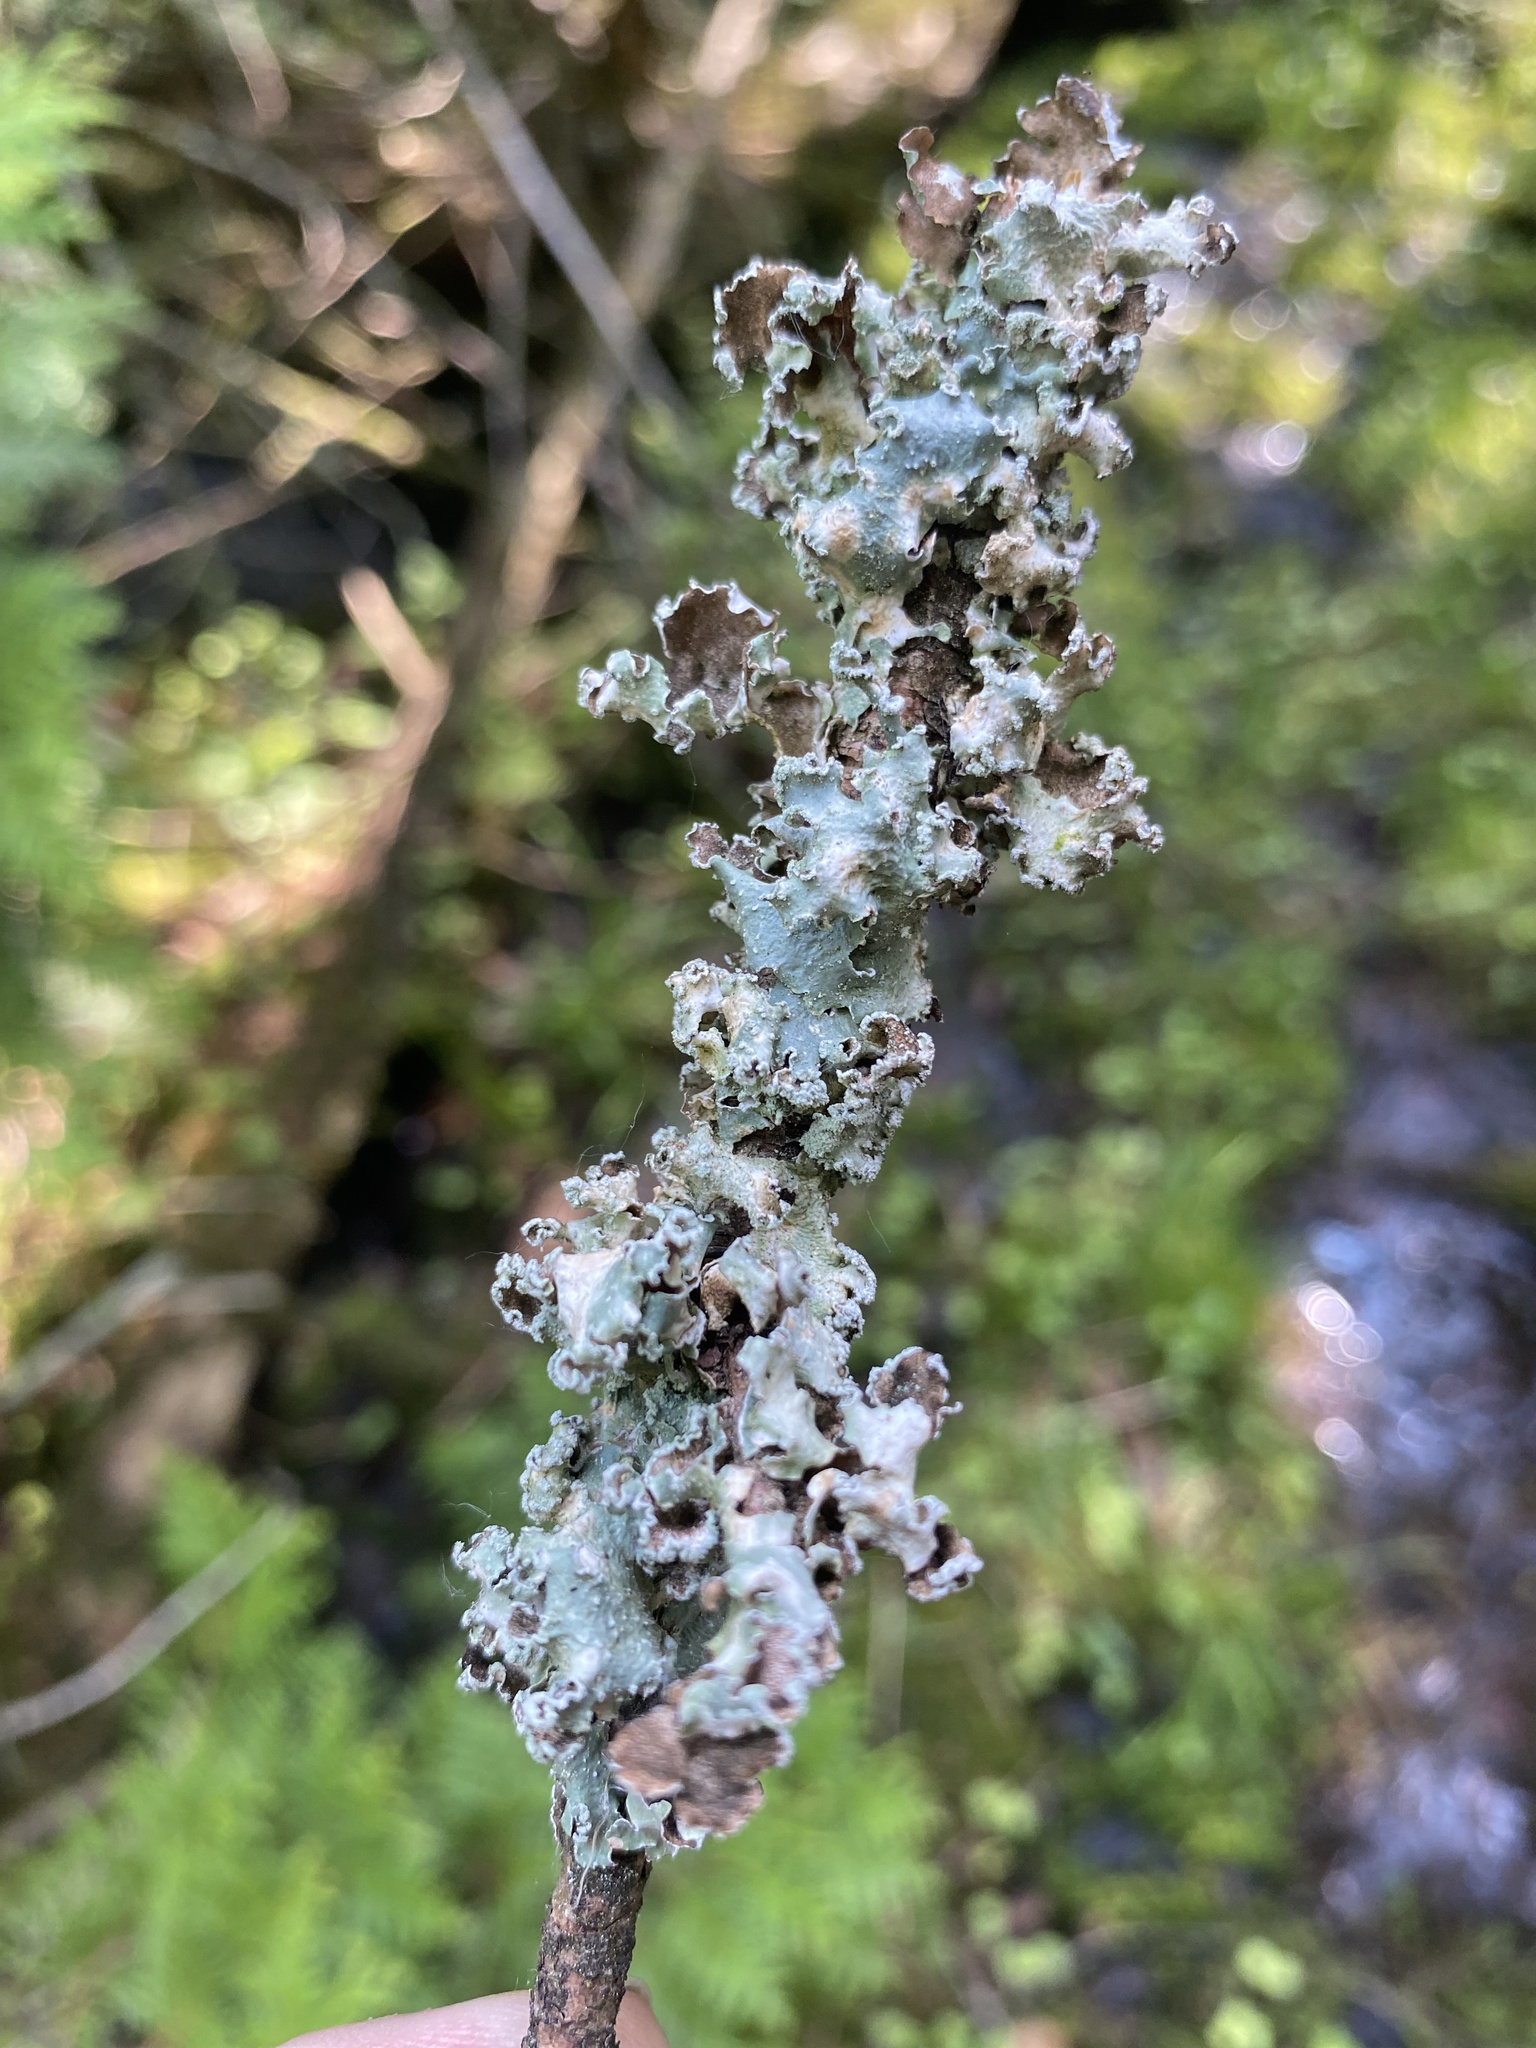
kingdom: Fungi
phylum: Ascomycota
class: Lecanoromycetes
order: Lecanorales
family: Parmeliaceae
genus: Punctelia
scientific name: Punctelia caseana
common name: Moondust speckled lichen
